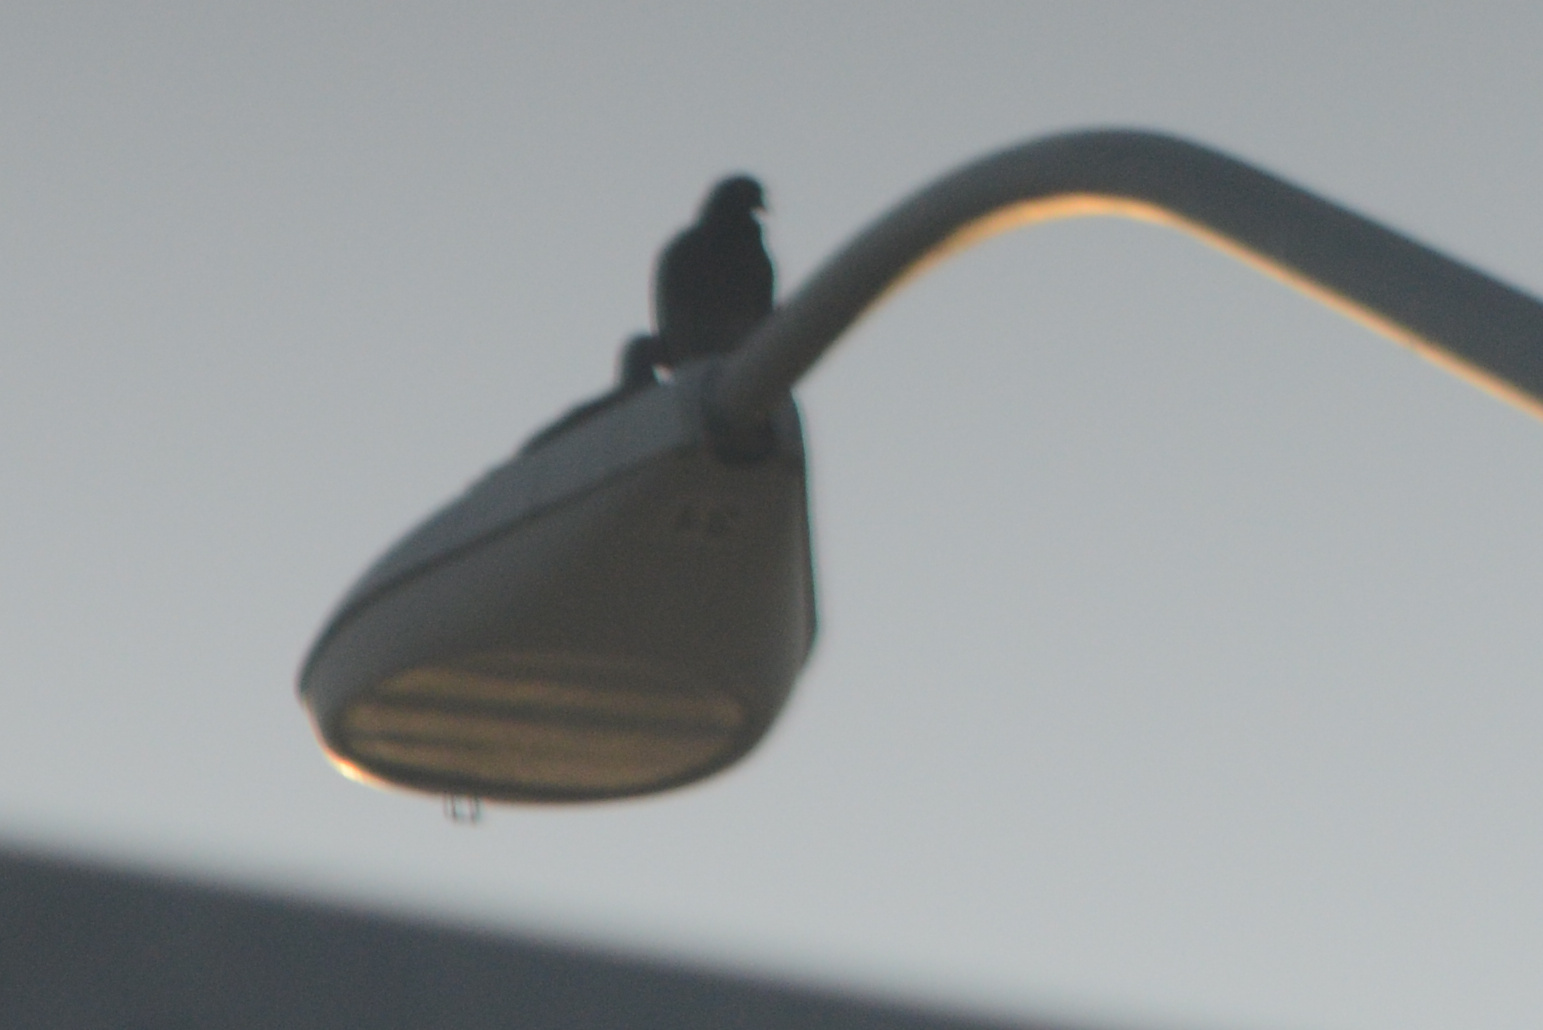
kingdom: Animalia
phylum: Chordata
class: Aves
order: Columbiformes
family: Columbidae
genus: Columba
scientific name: Columba livia
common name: Rock pigeon
